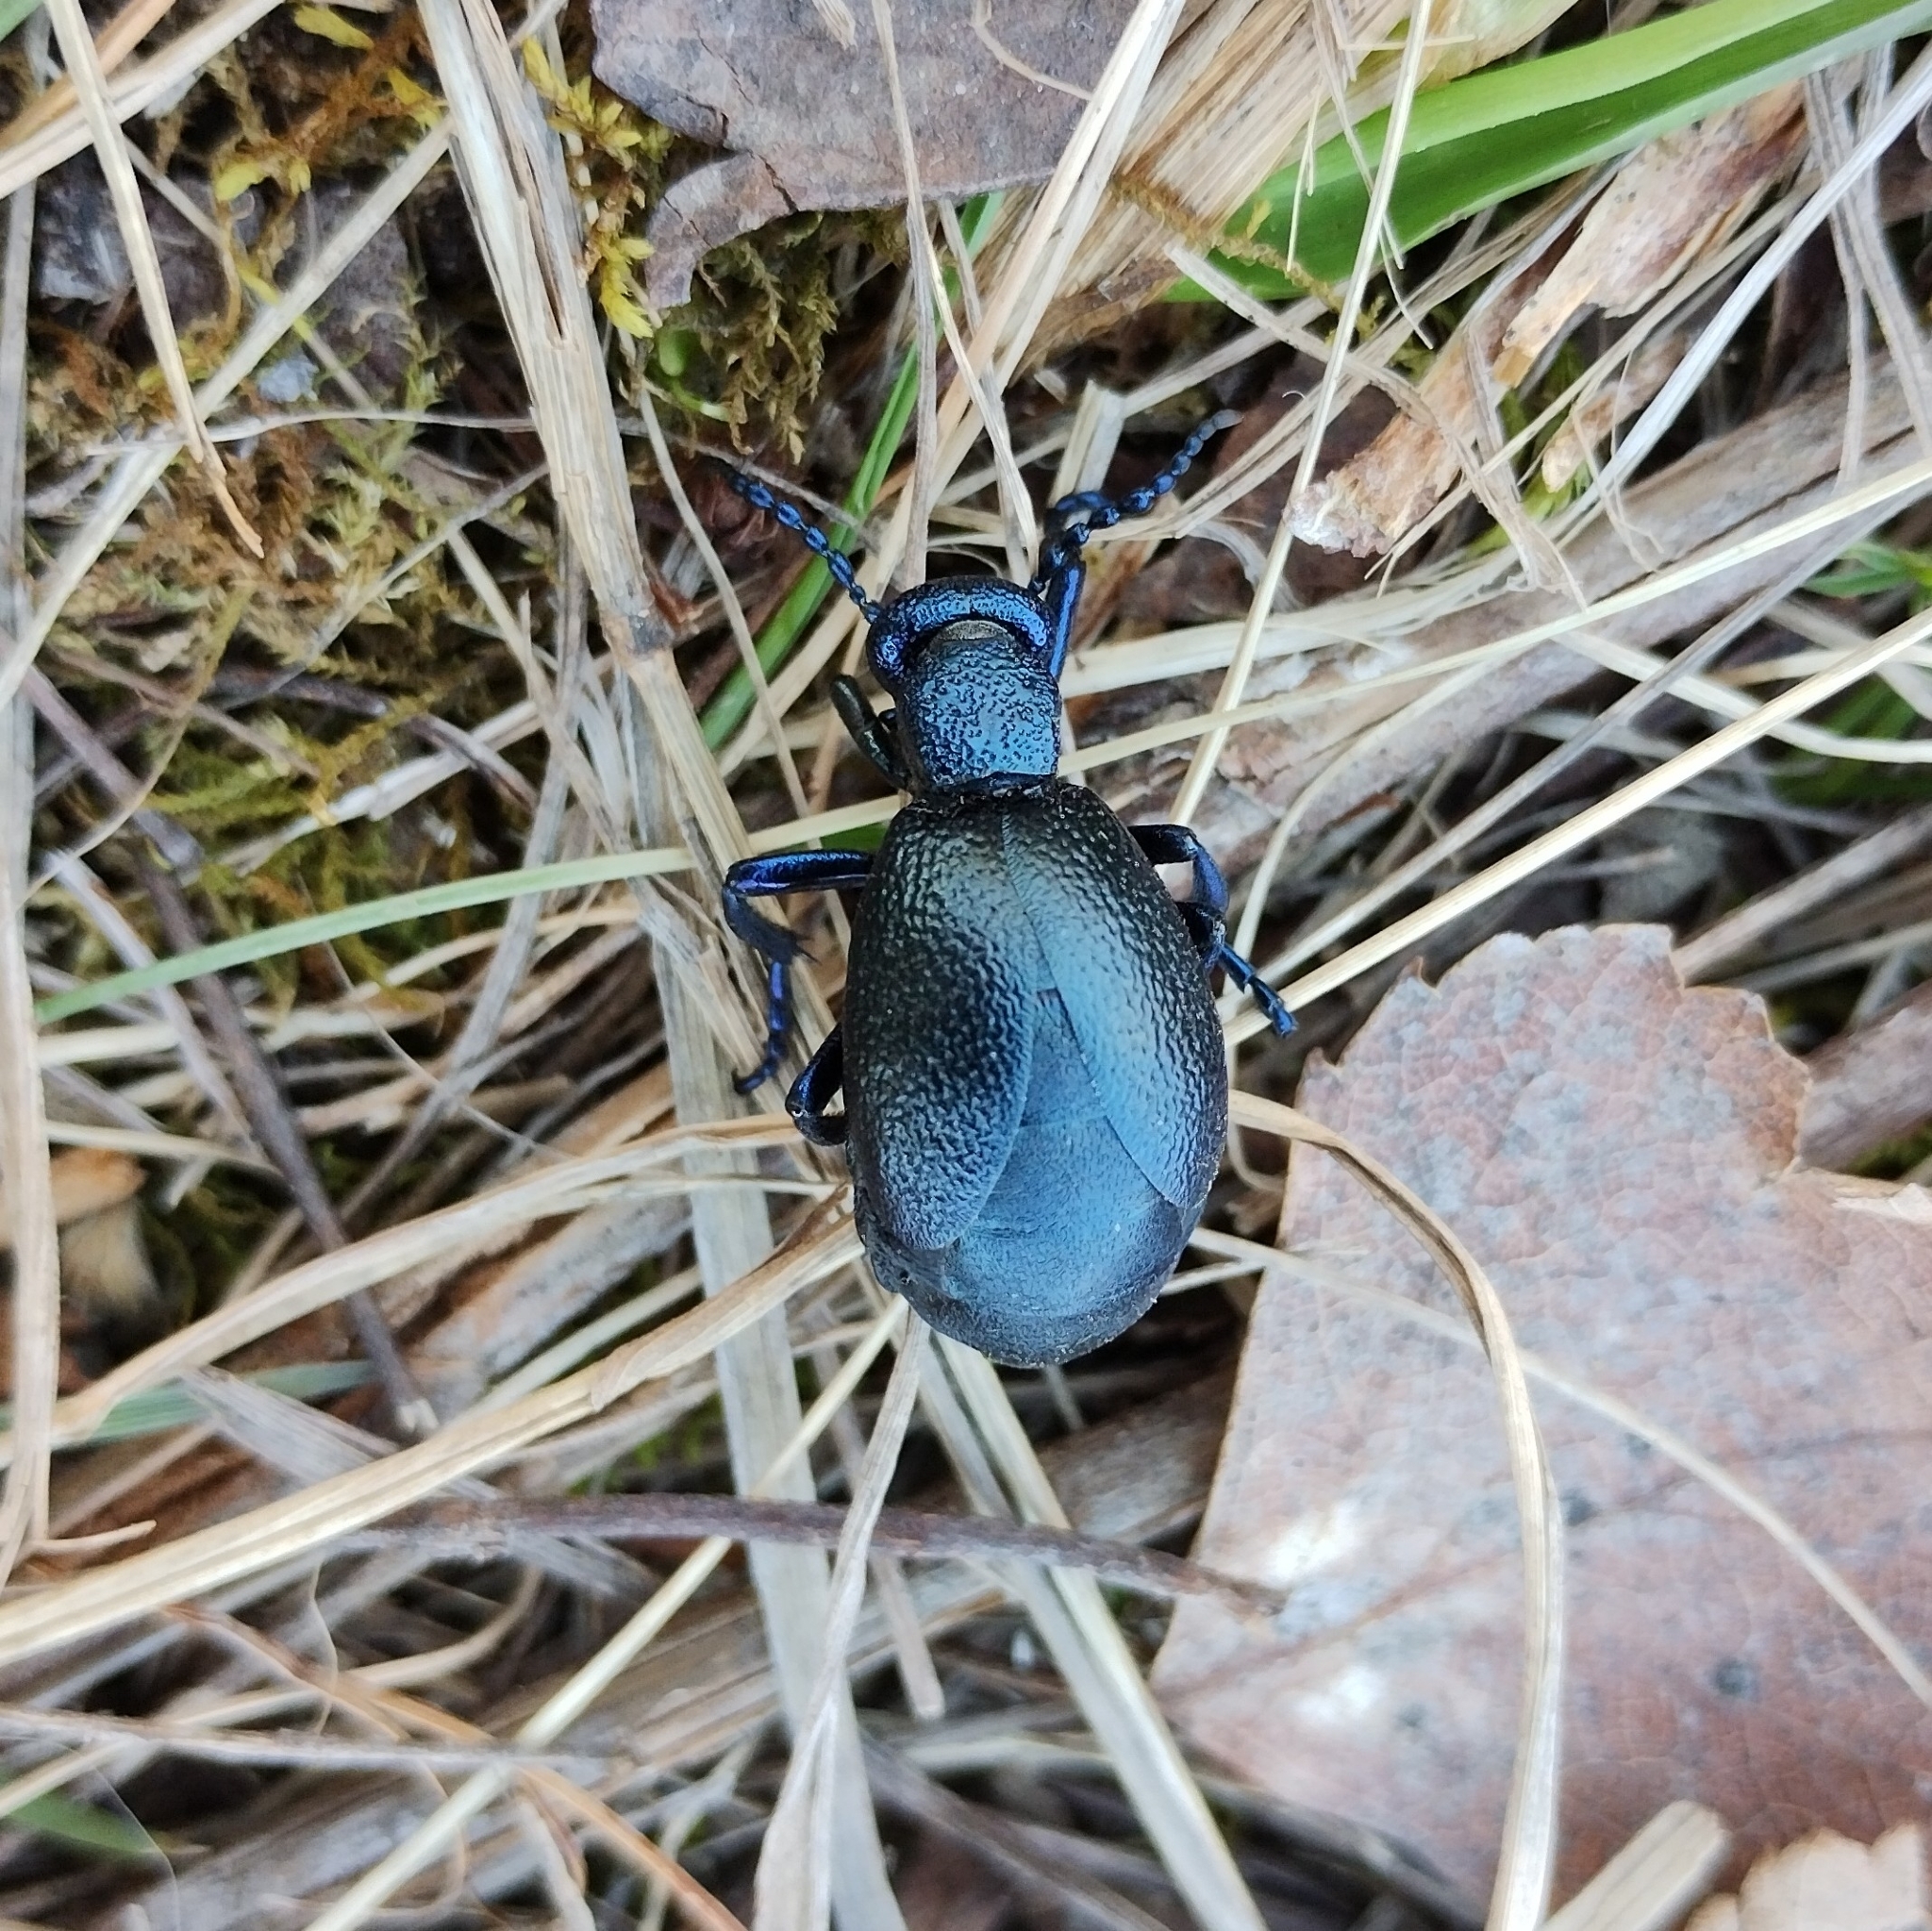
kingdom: Animalia
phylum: Arthropoda
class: Insecta
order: Coleoptera
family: Meloidae
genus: Meloe
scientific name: Meloe proscarabaeus
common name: Black oil-beetle
